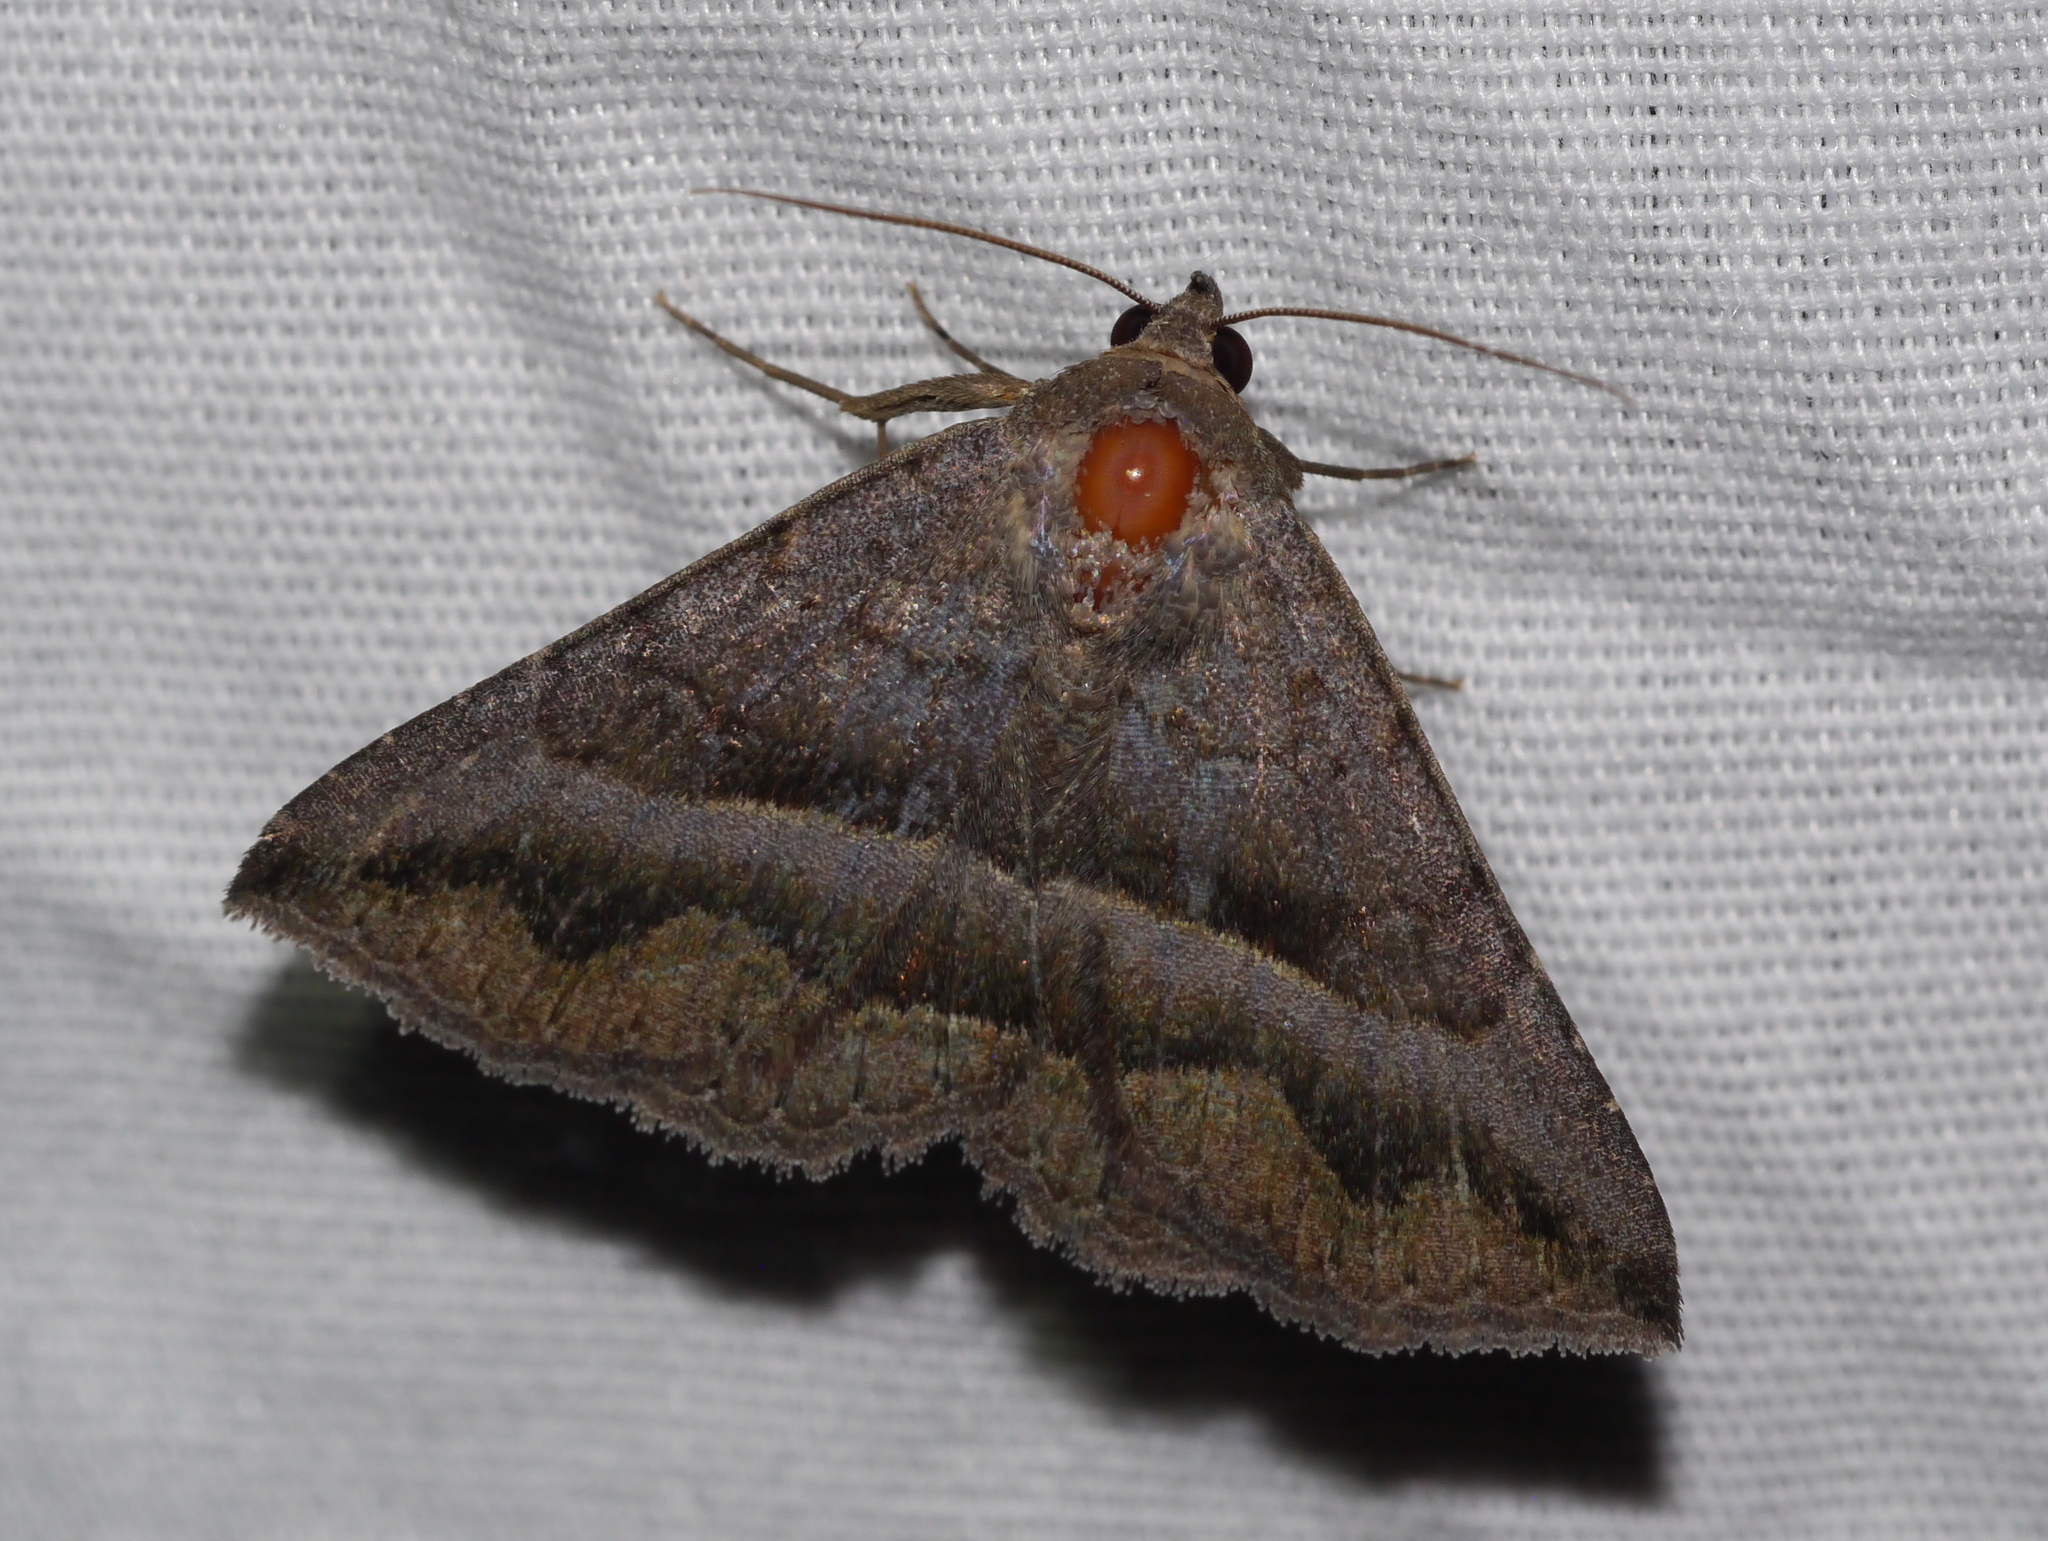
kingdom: Animalia
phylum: Arthropoda
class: Insecta
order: Lepidoptera
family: Erebidae
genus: Lesmone
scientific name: Lesmone griseipennis
